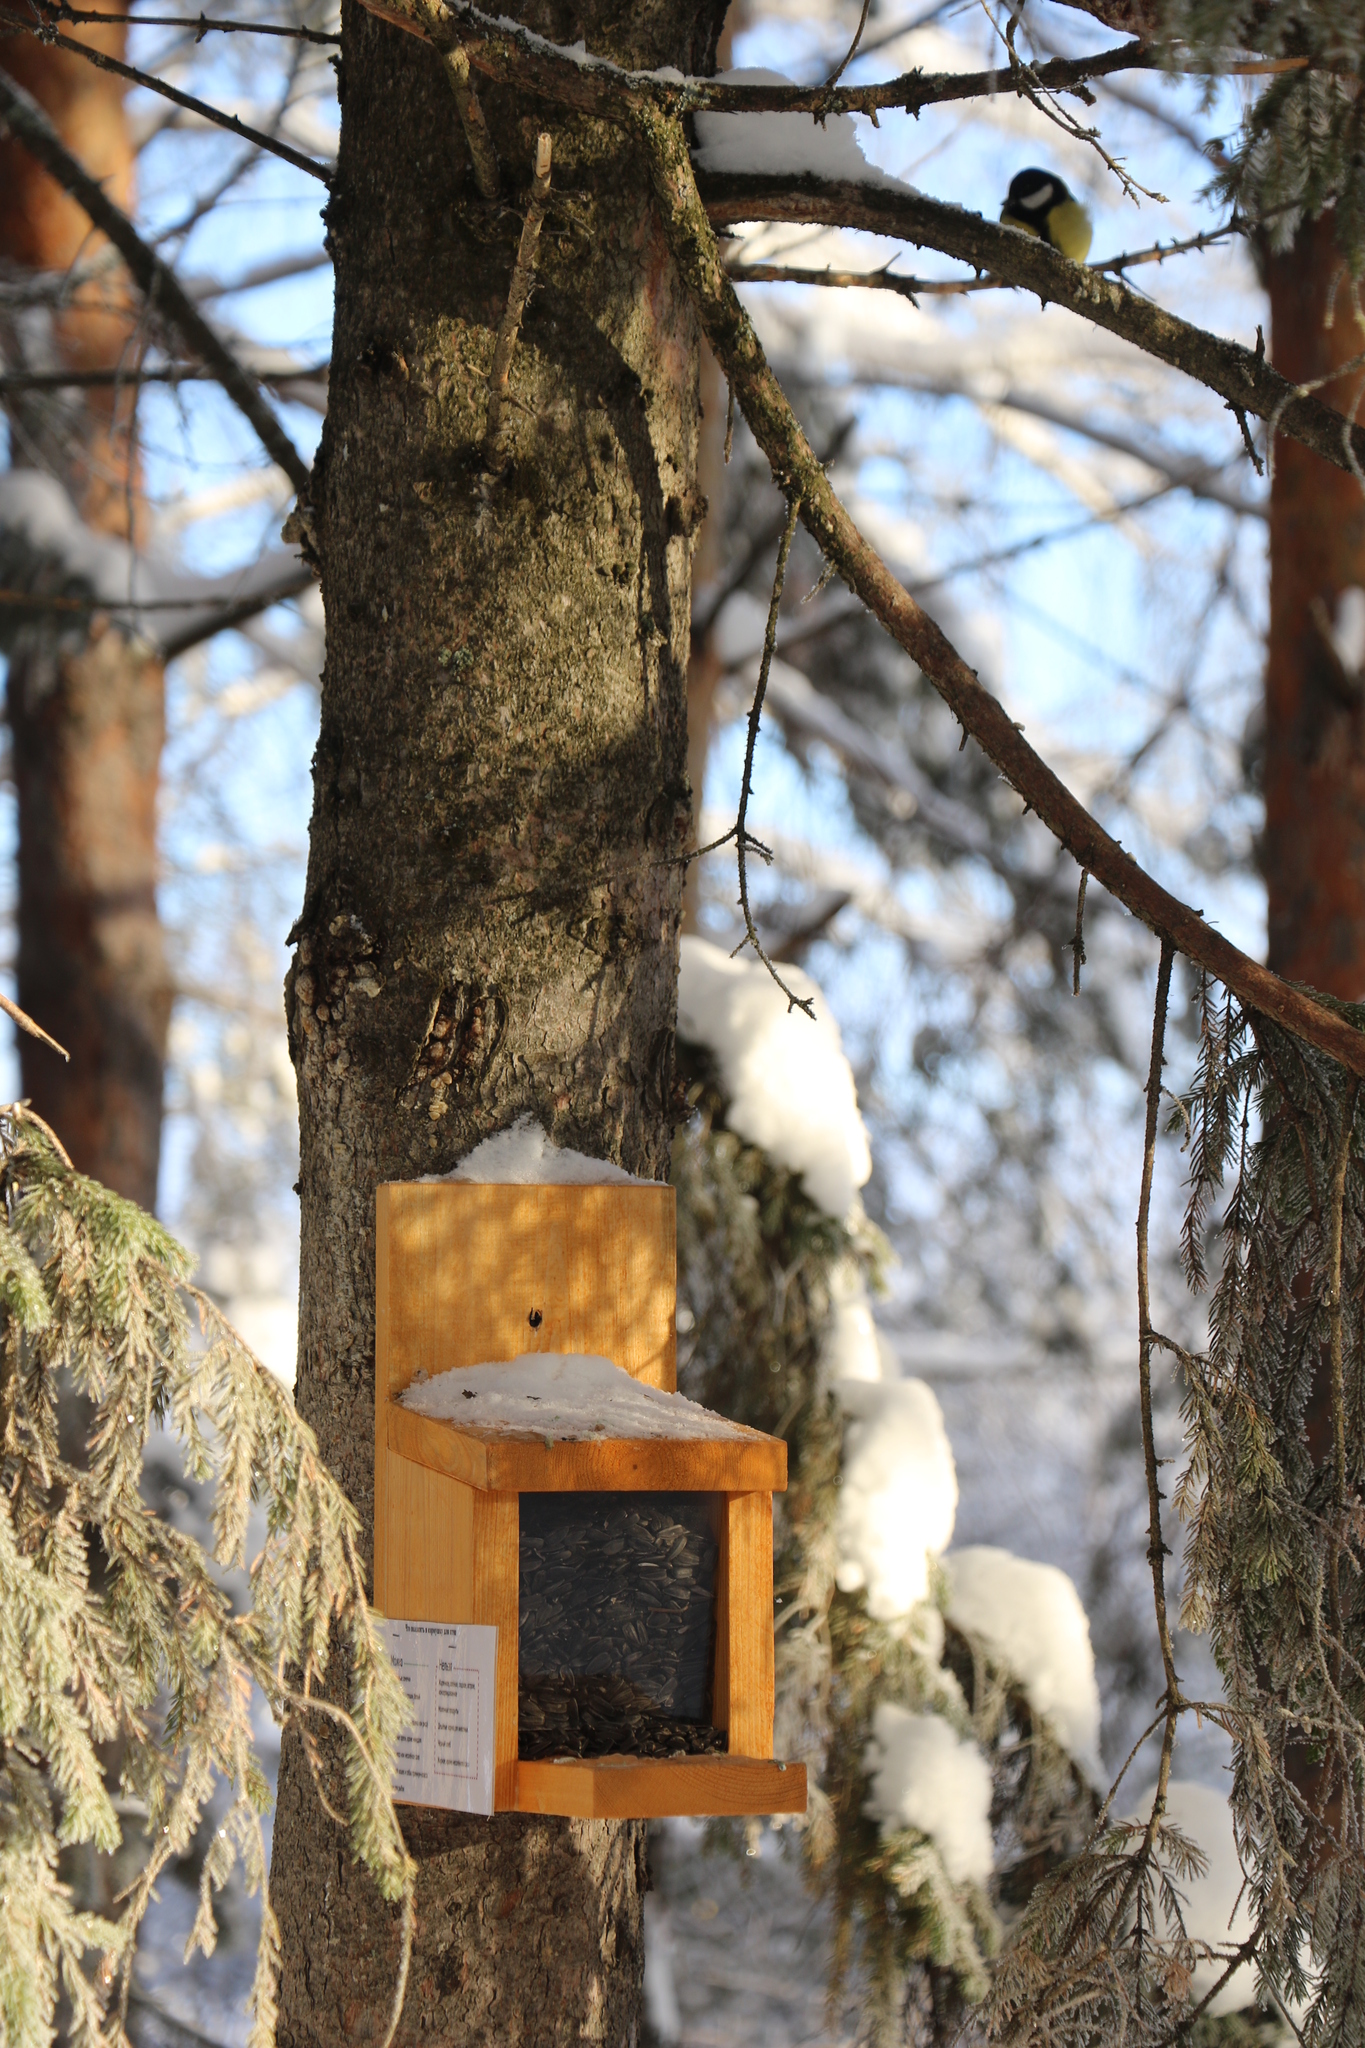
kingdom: Animalia
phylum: Chordata
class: Aves
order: Passeriformes
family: Paridae
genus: Parus
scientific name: Parus major
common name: Great tit
